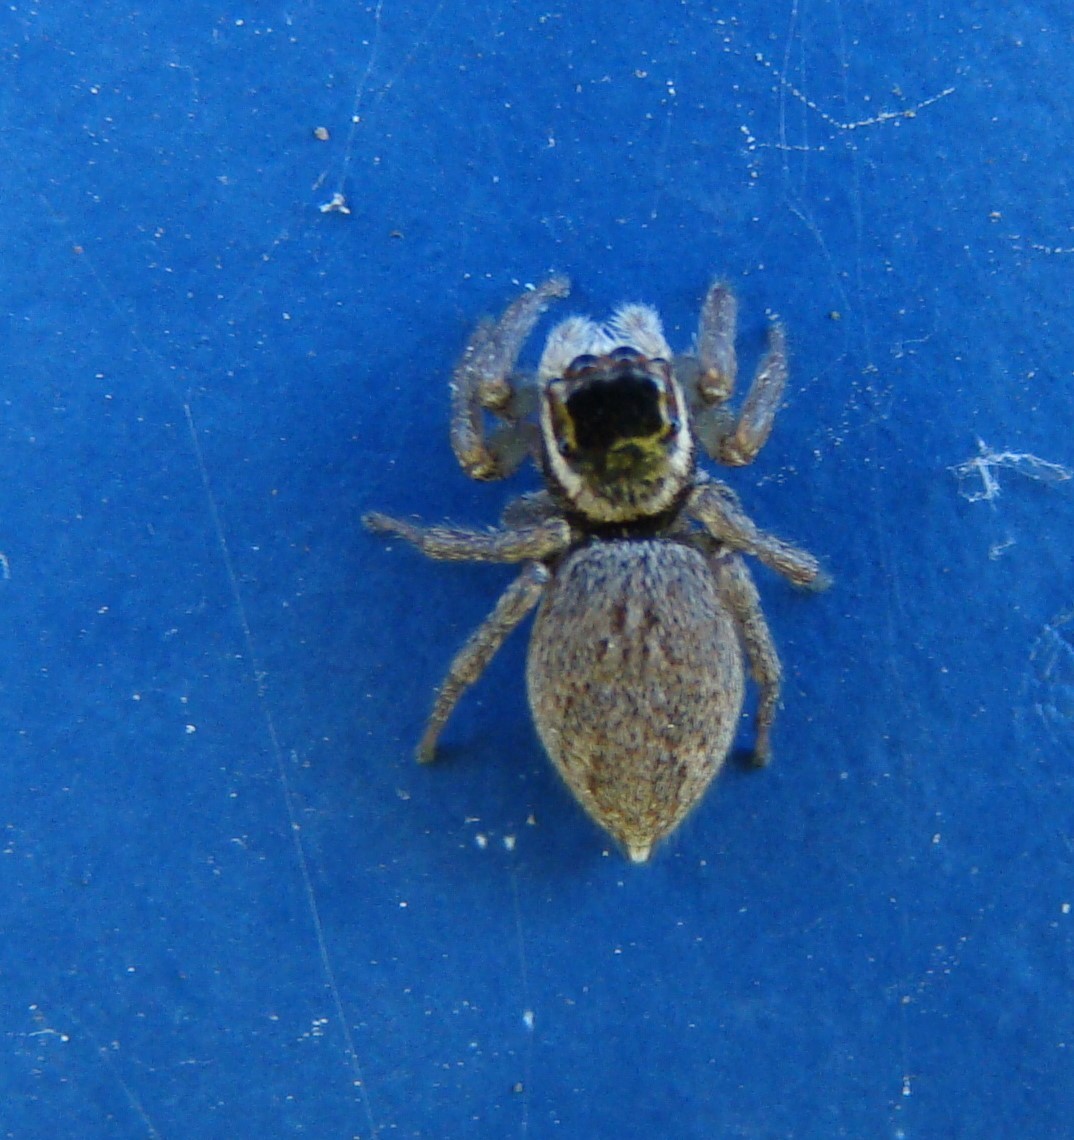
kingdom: Animalia
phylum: Arthropoda
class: Arachnida
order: Araneae
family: Salticidae
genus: Maratus
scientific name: Maratus griseus
